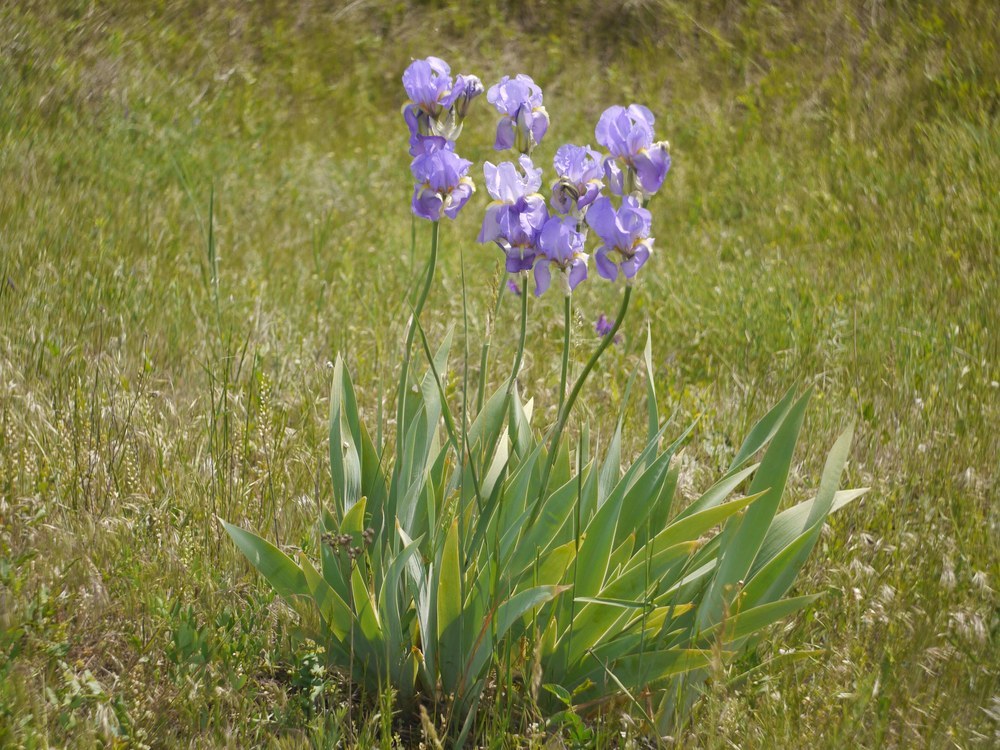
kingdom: Plantae
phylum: Tracheophyta
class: Liliopsida
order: Asparagales
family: Iridaceae
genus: Iris
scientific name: Iris pallida
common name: Sweet iris
